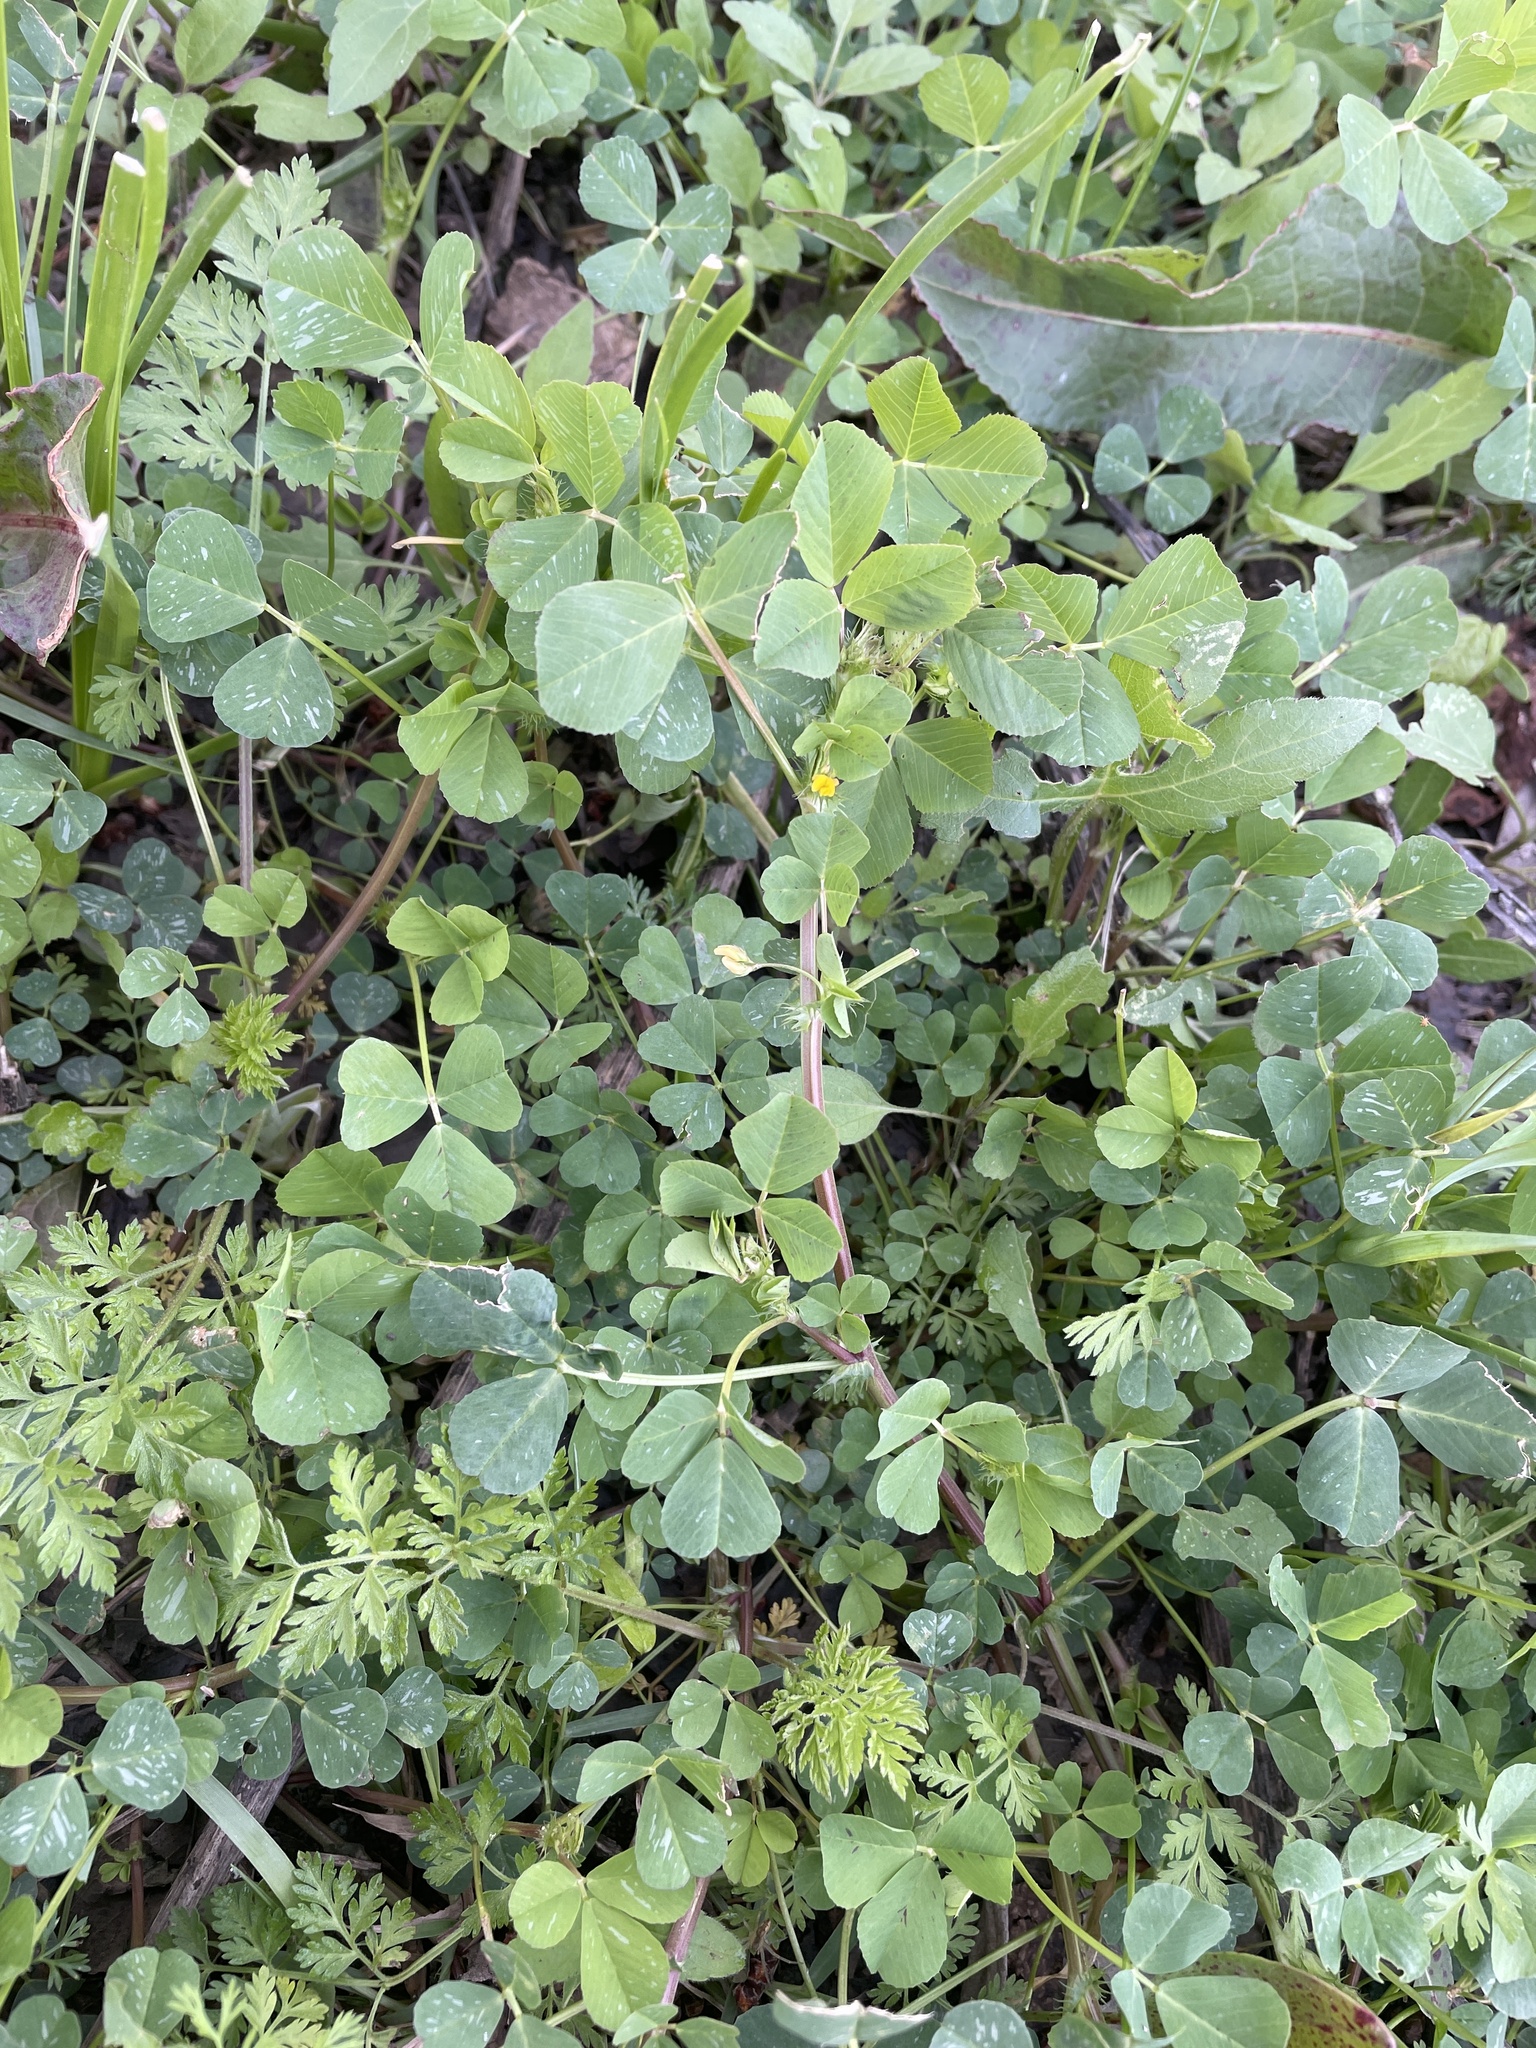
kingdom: Plantae
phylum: Tracheophyta
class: Magnoliopsida
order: Fabales
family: Fabaceae
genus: Medicago
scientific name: Medicago polymorpha
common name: Burclover
